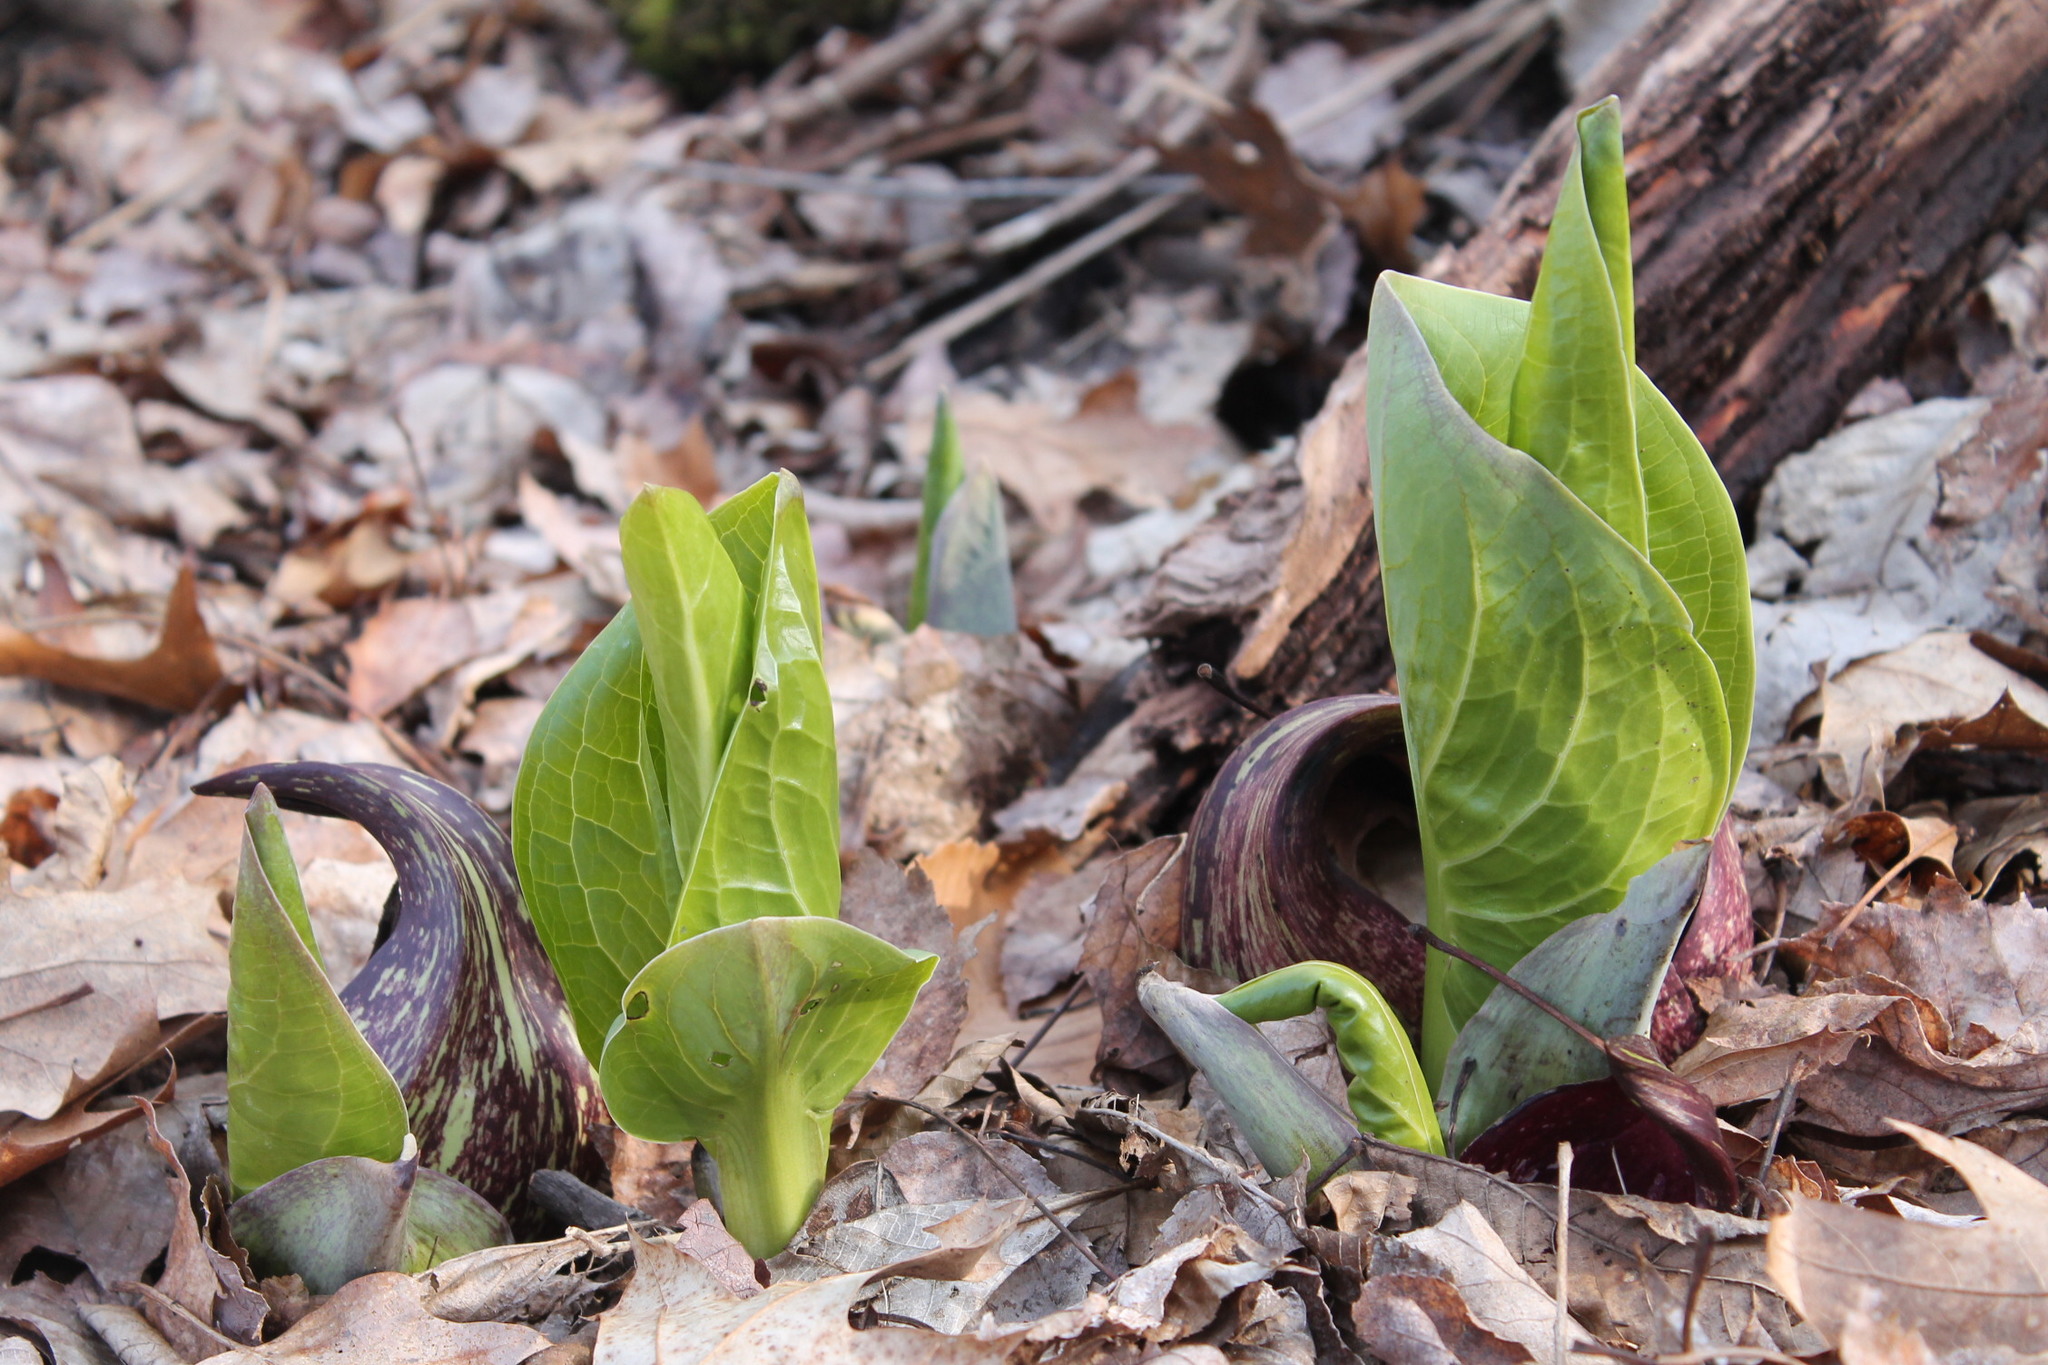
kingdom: Plantae
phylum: Tracheophyta
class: Liliopsida
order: Alismatales
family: Araceae
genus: Symplocarpus
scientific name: Symplocarpus foetidus
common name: Eastern skunk cabbage
